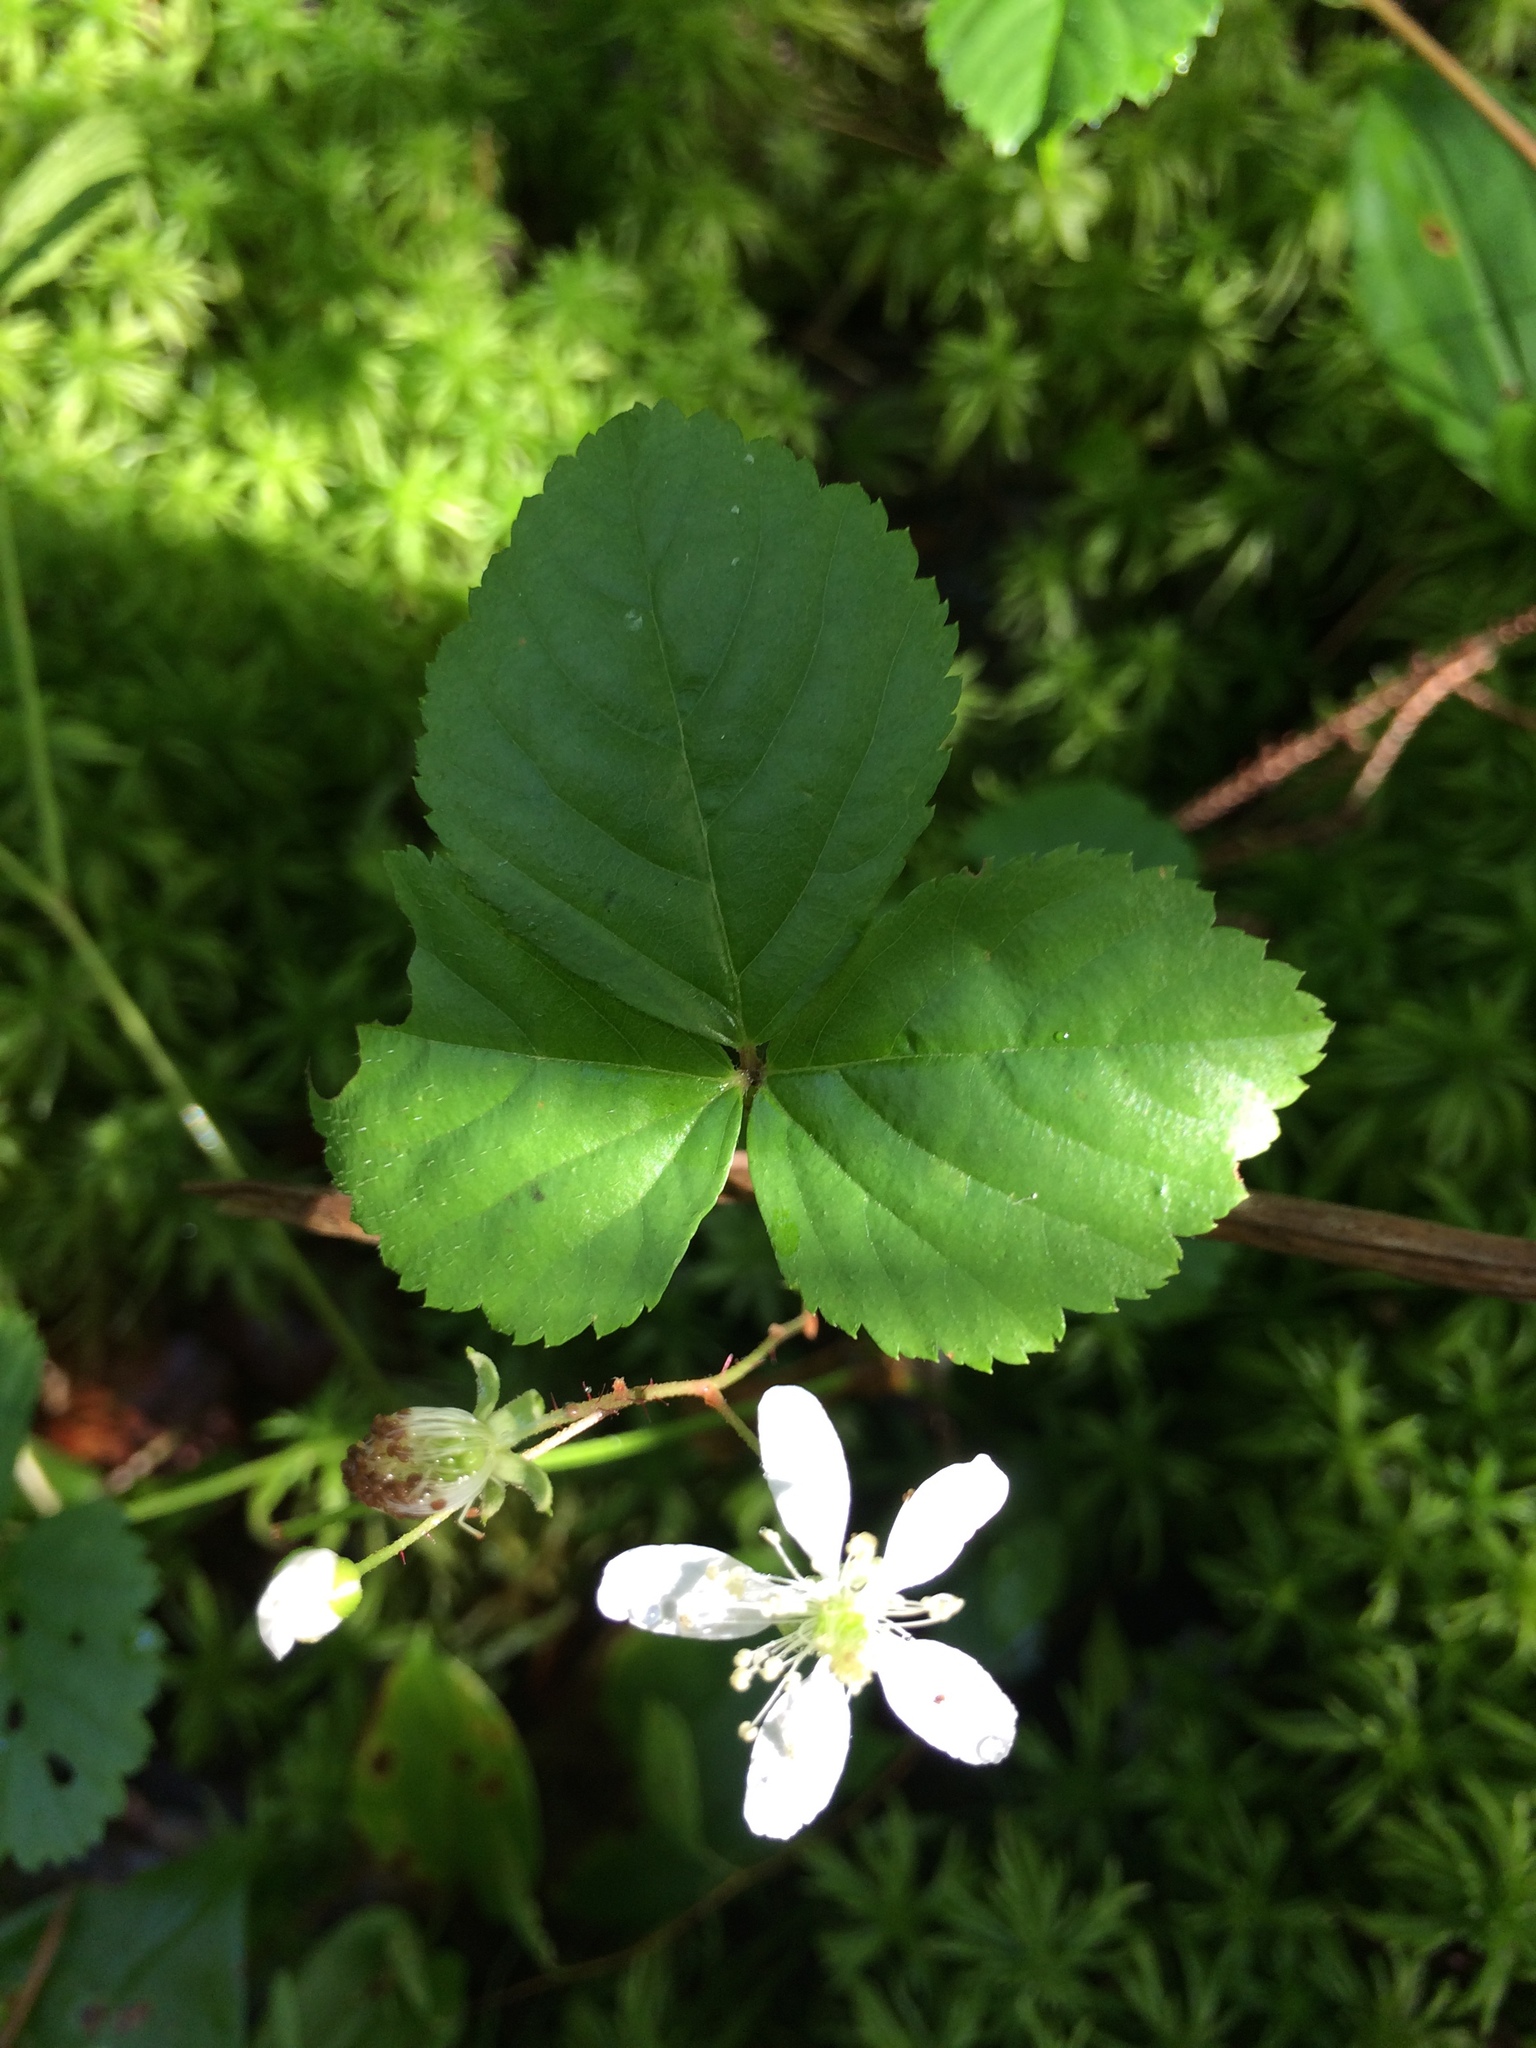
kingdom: Plantae
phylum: Tracheophyta
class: Magnoliopsida
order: Rosales
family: Rosaceae
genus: Rubus
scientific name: Rubus pubescens
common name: Dwarf raspberry
